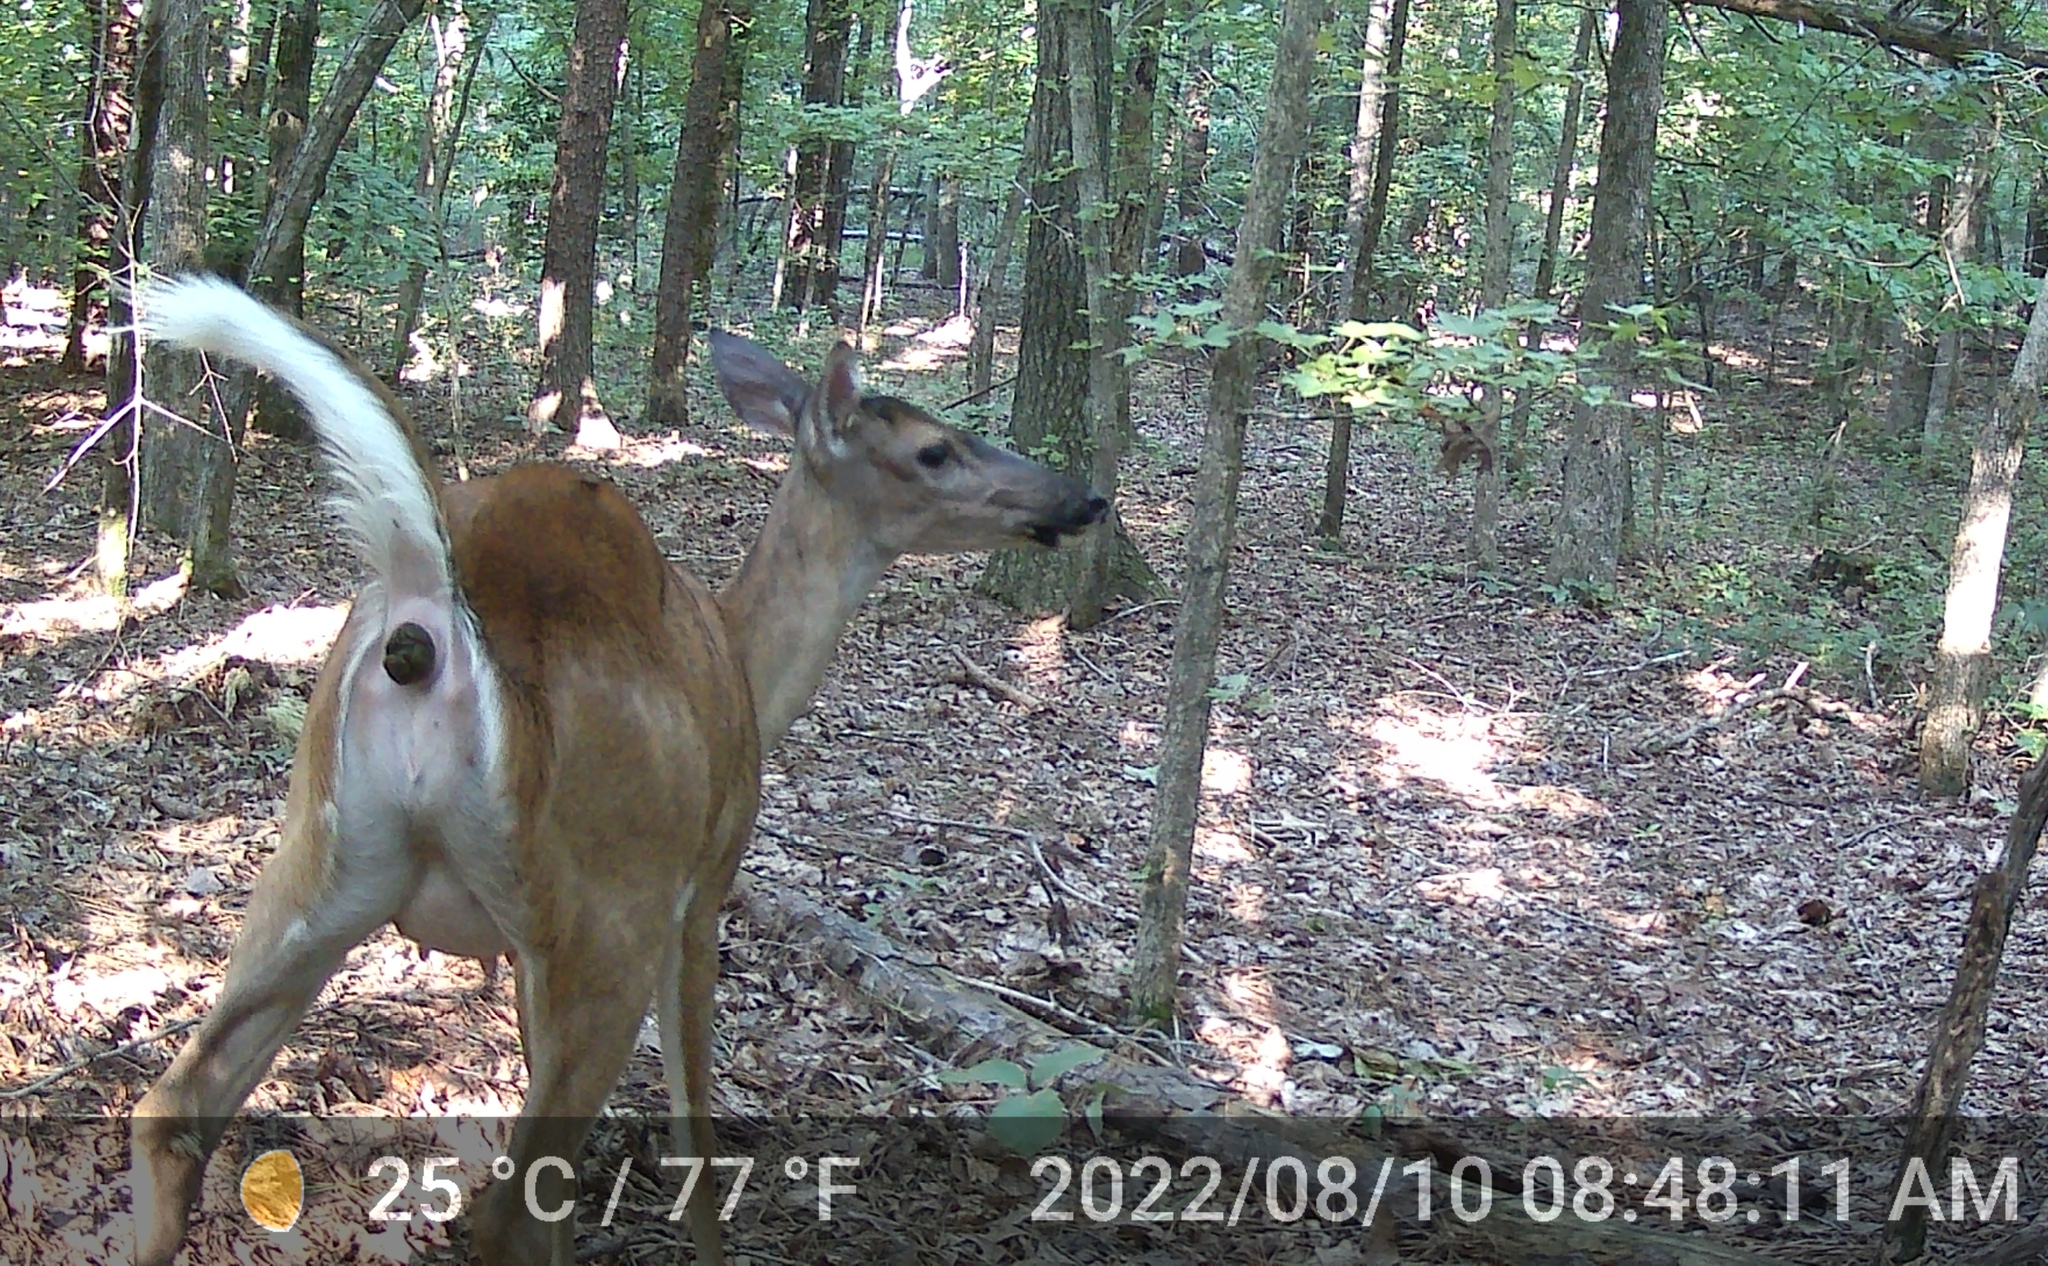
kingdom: Animalia
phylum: Chordata
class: Mammalia
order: Artiodactyla
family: Cervidae
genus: Odocoileus
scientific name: Odocoileus virginianus
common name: White-tailed deer
